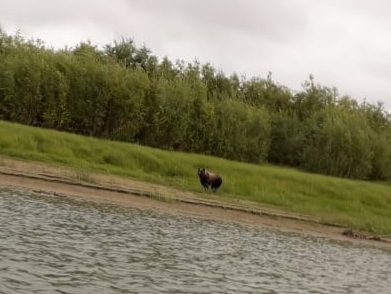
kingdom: Animalia
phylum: Chordata
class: Mammalia
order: Carnivora
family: Ursidae
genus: Ursus
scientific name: Ursus arctos
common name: Brown bear
